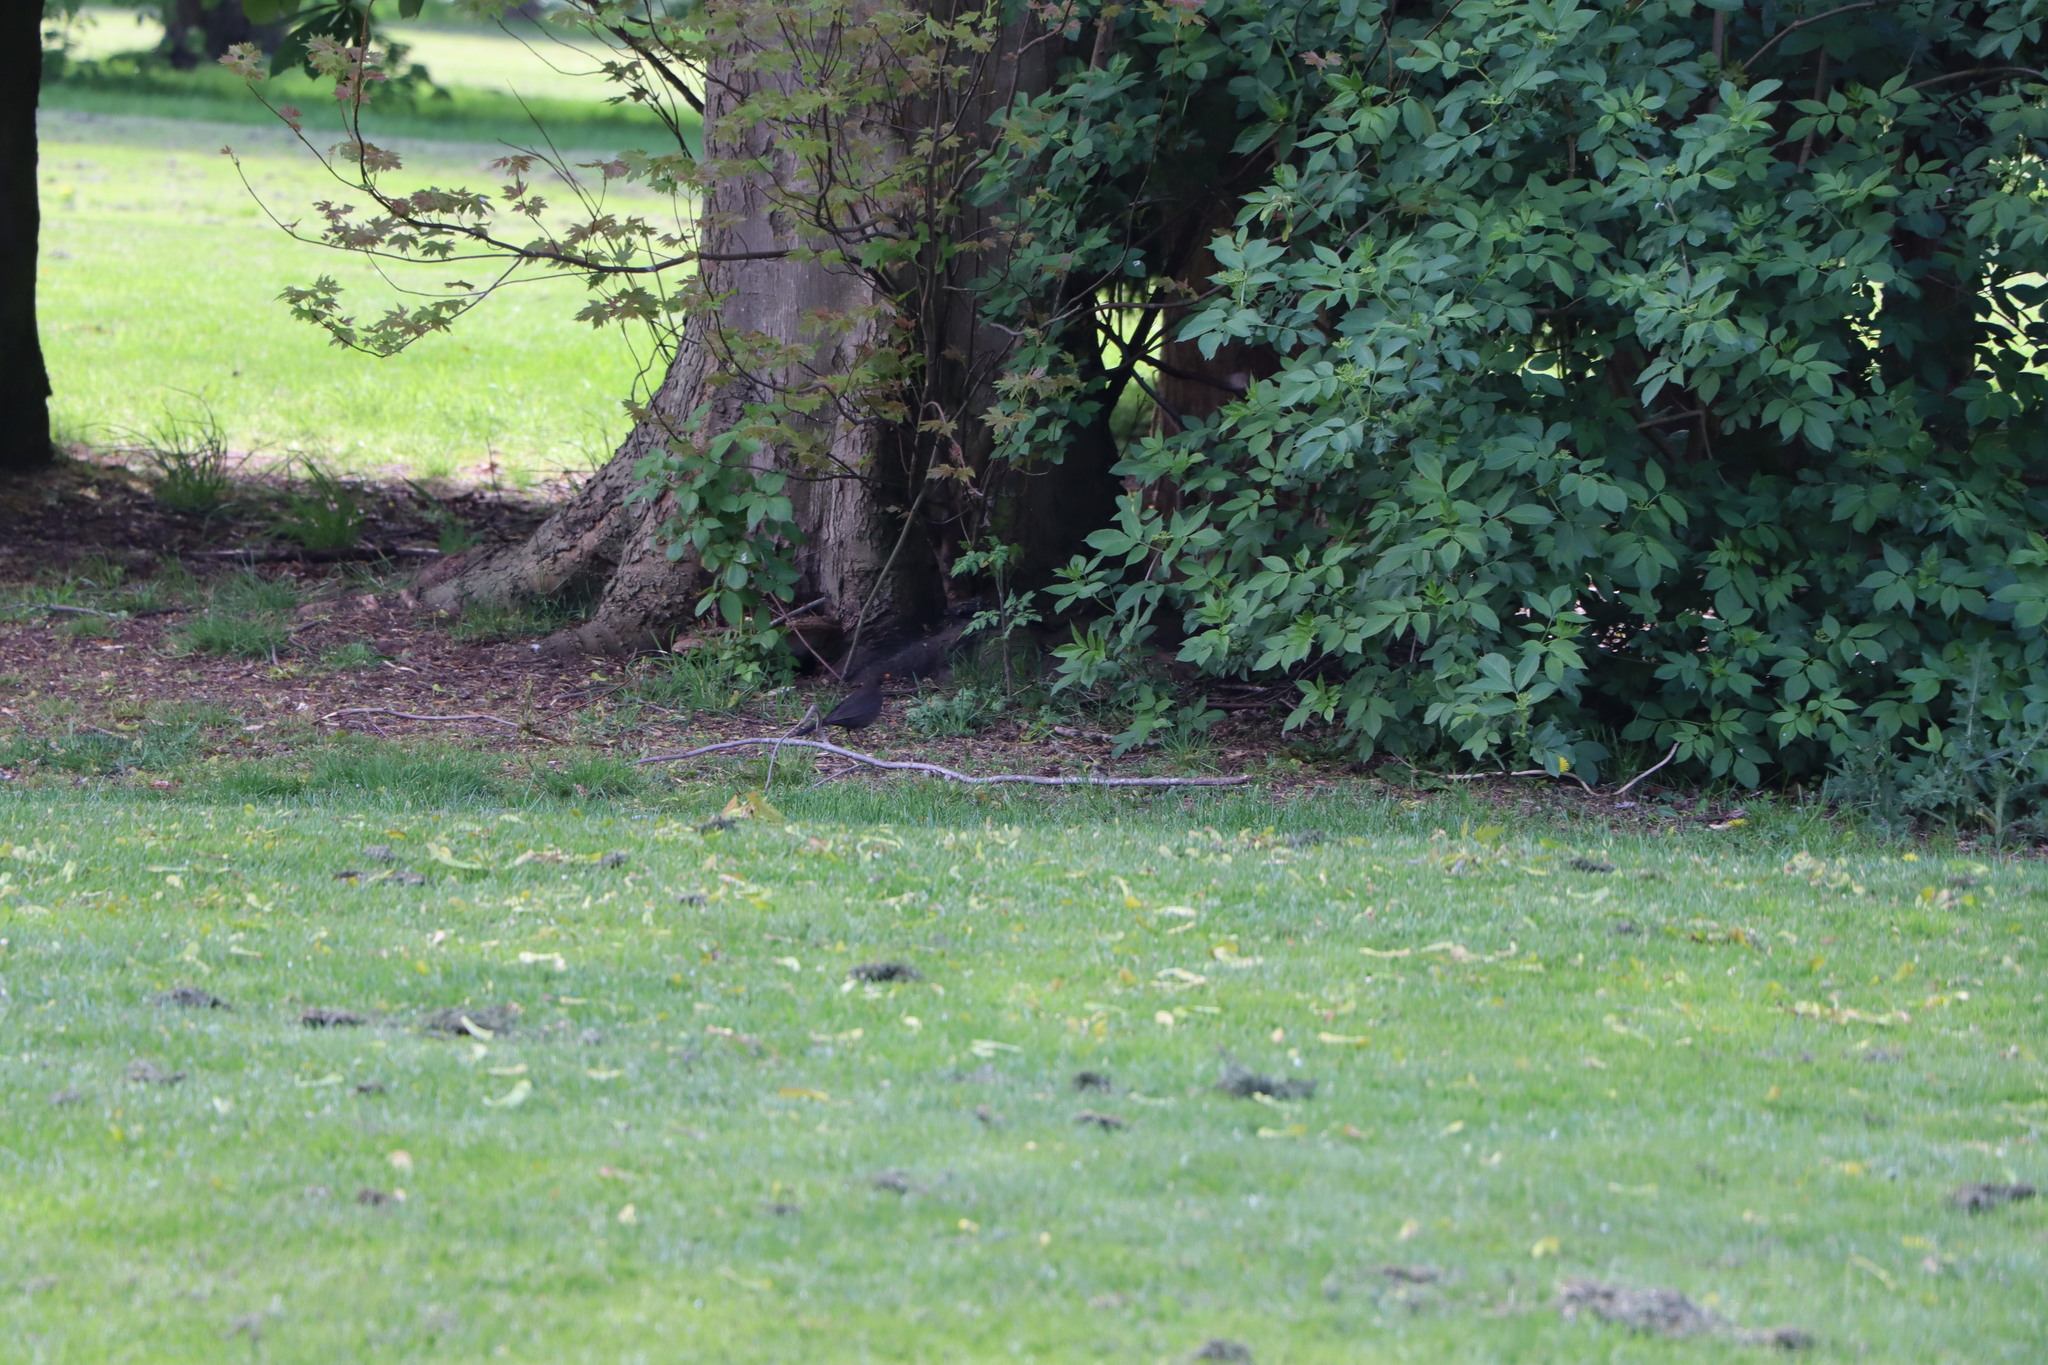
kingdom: Animalia
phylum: Chordata
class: Aves
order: Passeriformes
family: Turdidae
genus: Turdus
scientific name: Turdus merula
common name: Common blackbird
